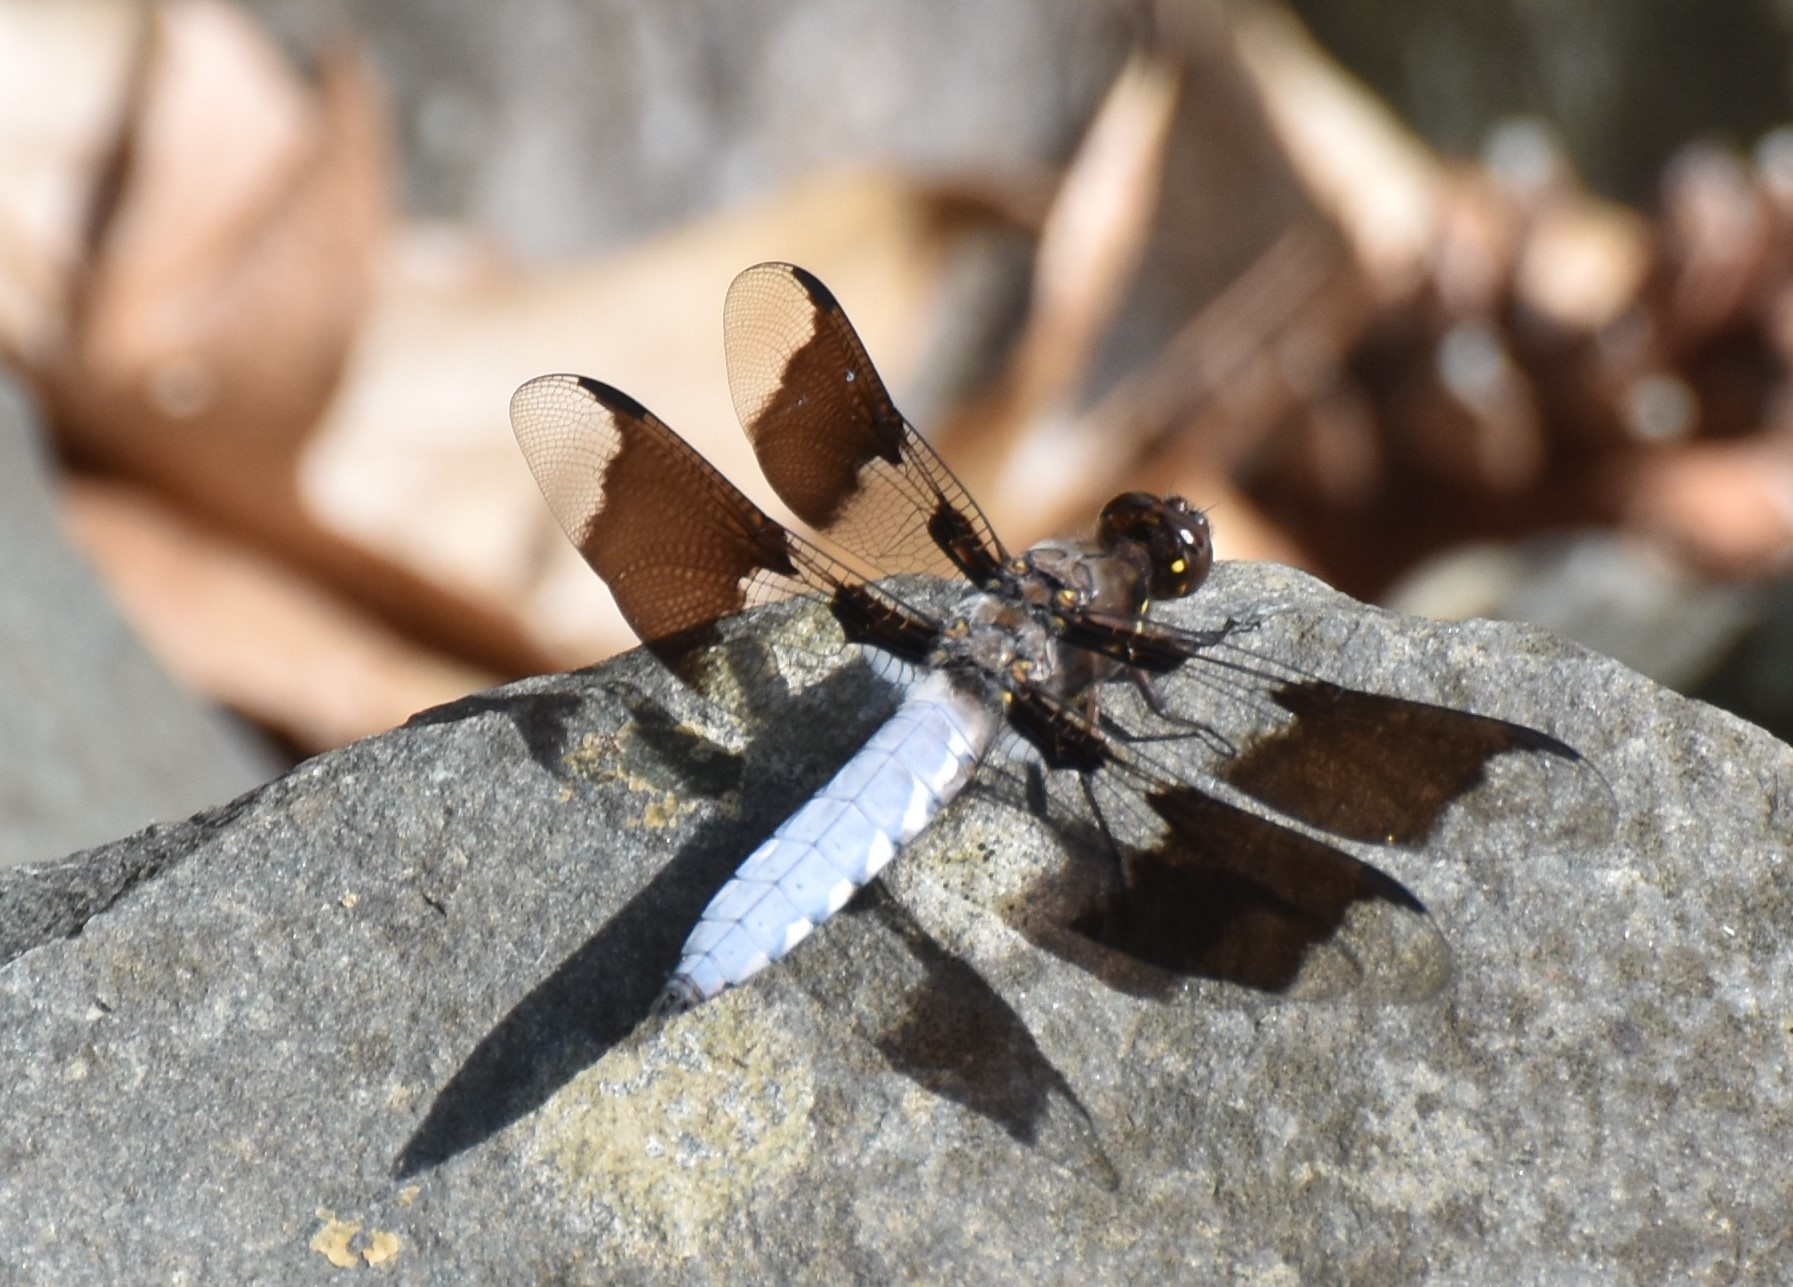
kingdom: Animalia
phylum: Arthropoda
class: Insecta
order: Odonata
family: Libellulidae
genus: Plathemis
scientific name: Plathemis lydia
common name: Common whitetail
